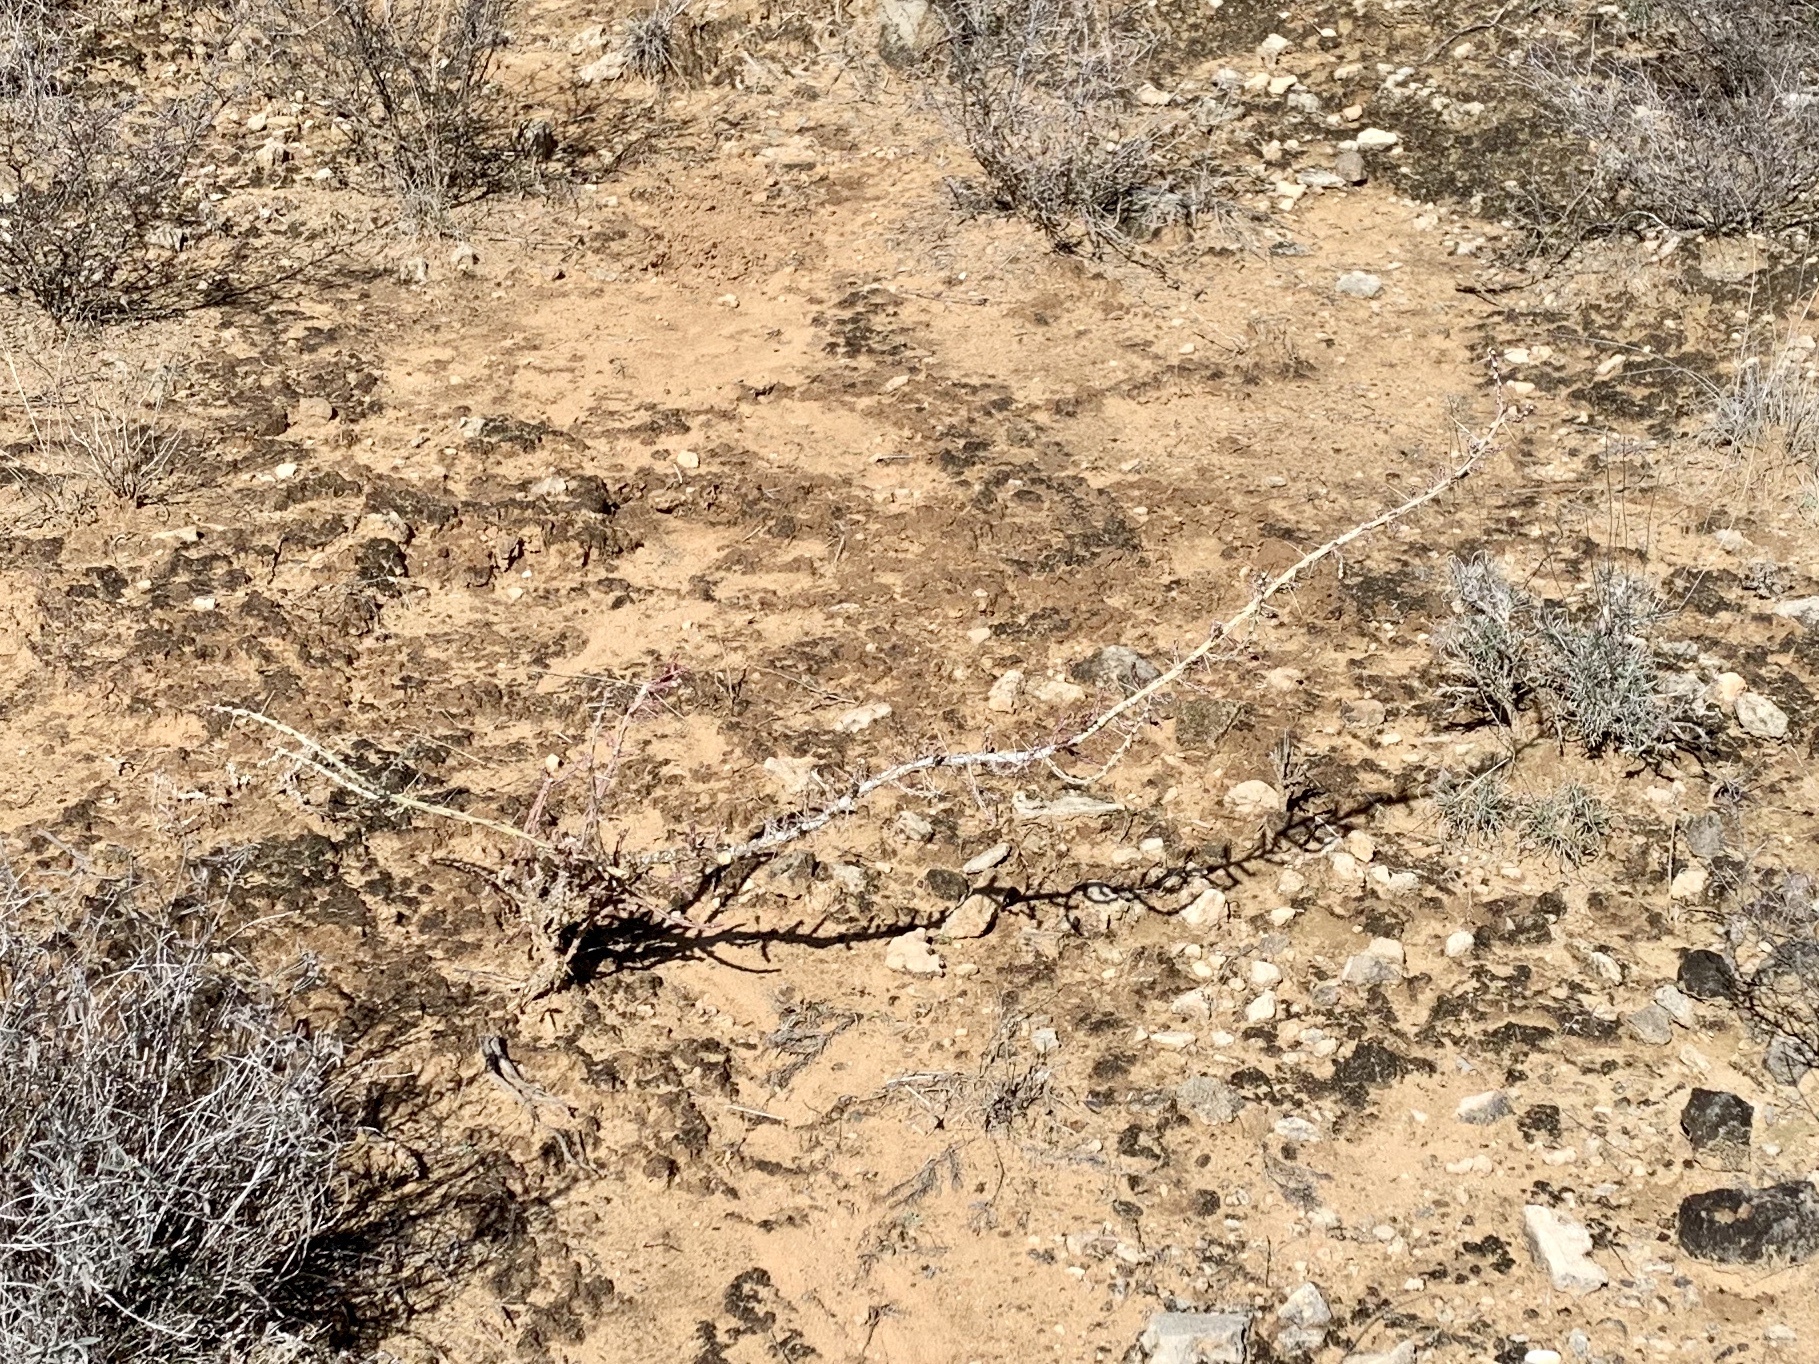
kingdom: Plantae
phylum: Tracheophyta
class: Magnoliopsida
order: Caryophyllales
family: Cactaceae
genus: Cylindropuntia
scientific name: Cylindropuntia leptocaulis
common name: Christmas cactus
